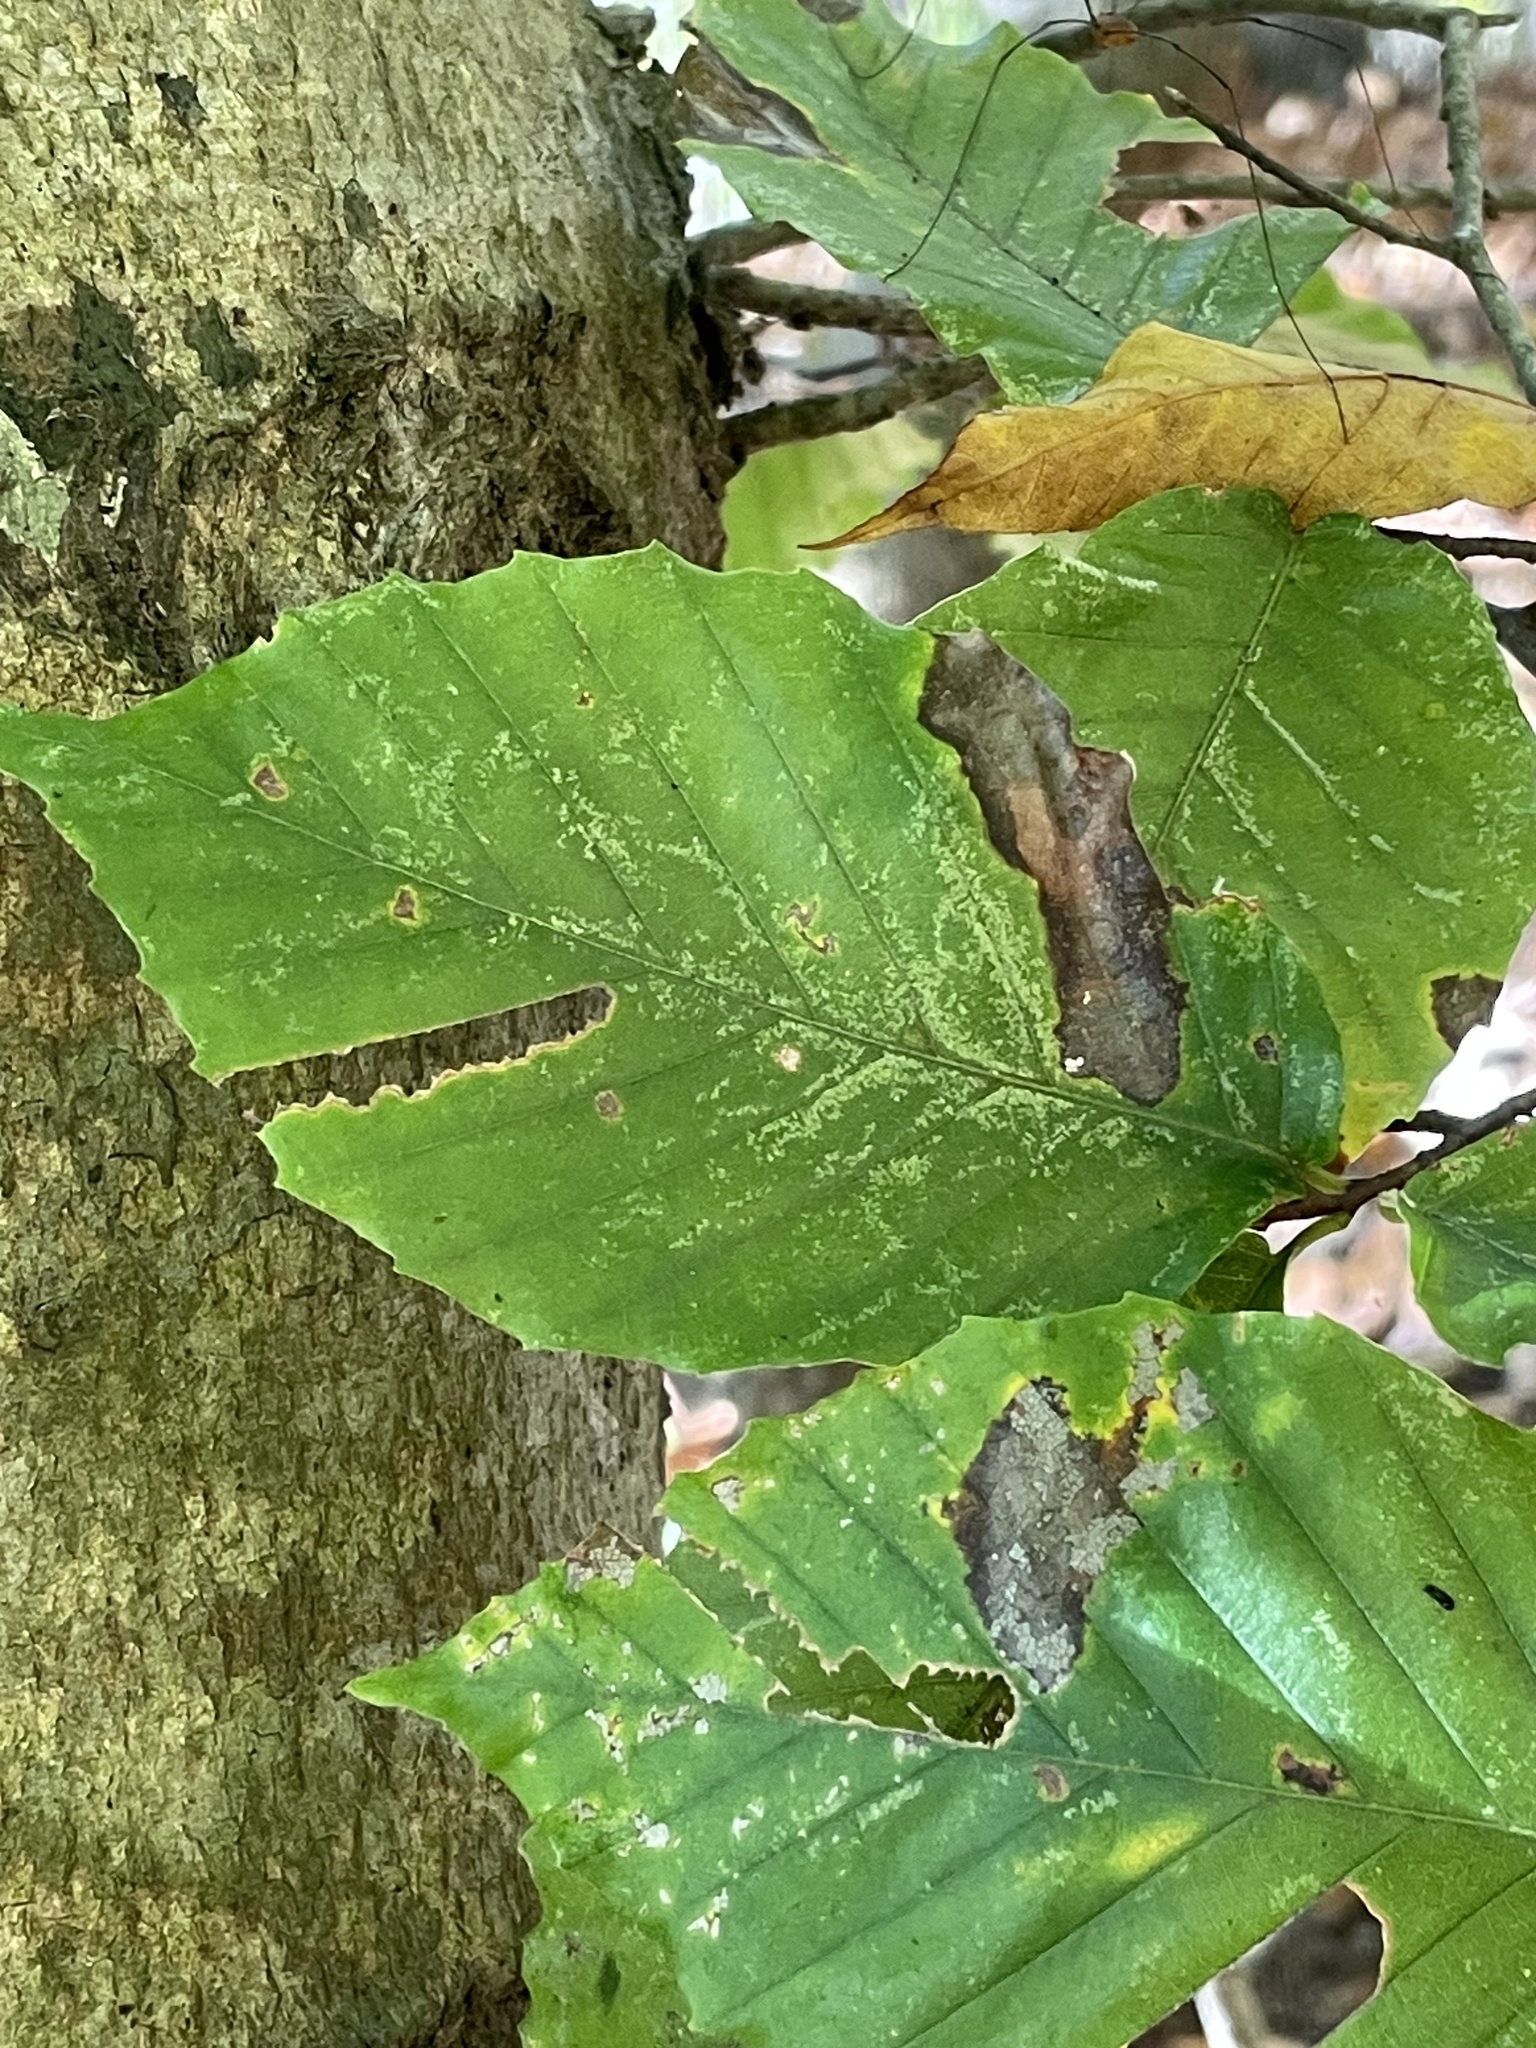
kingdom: Plantae
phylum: Tracheophyta
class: Magnoliopsida
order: Fagales
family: Fagaceae
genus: Fagus
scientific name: Fagus grandifolia
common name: American beech
